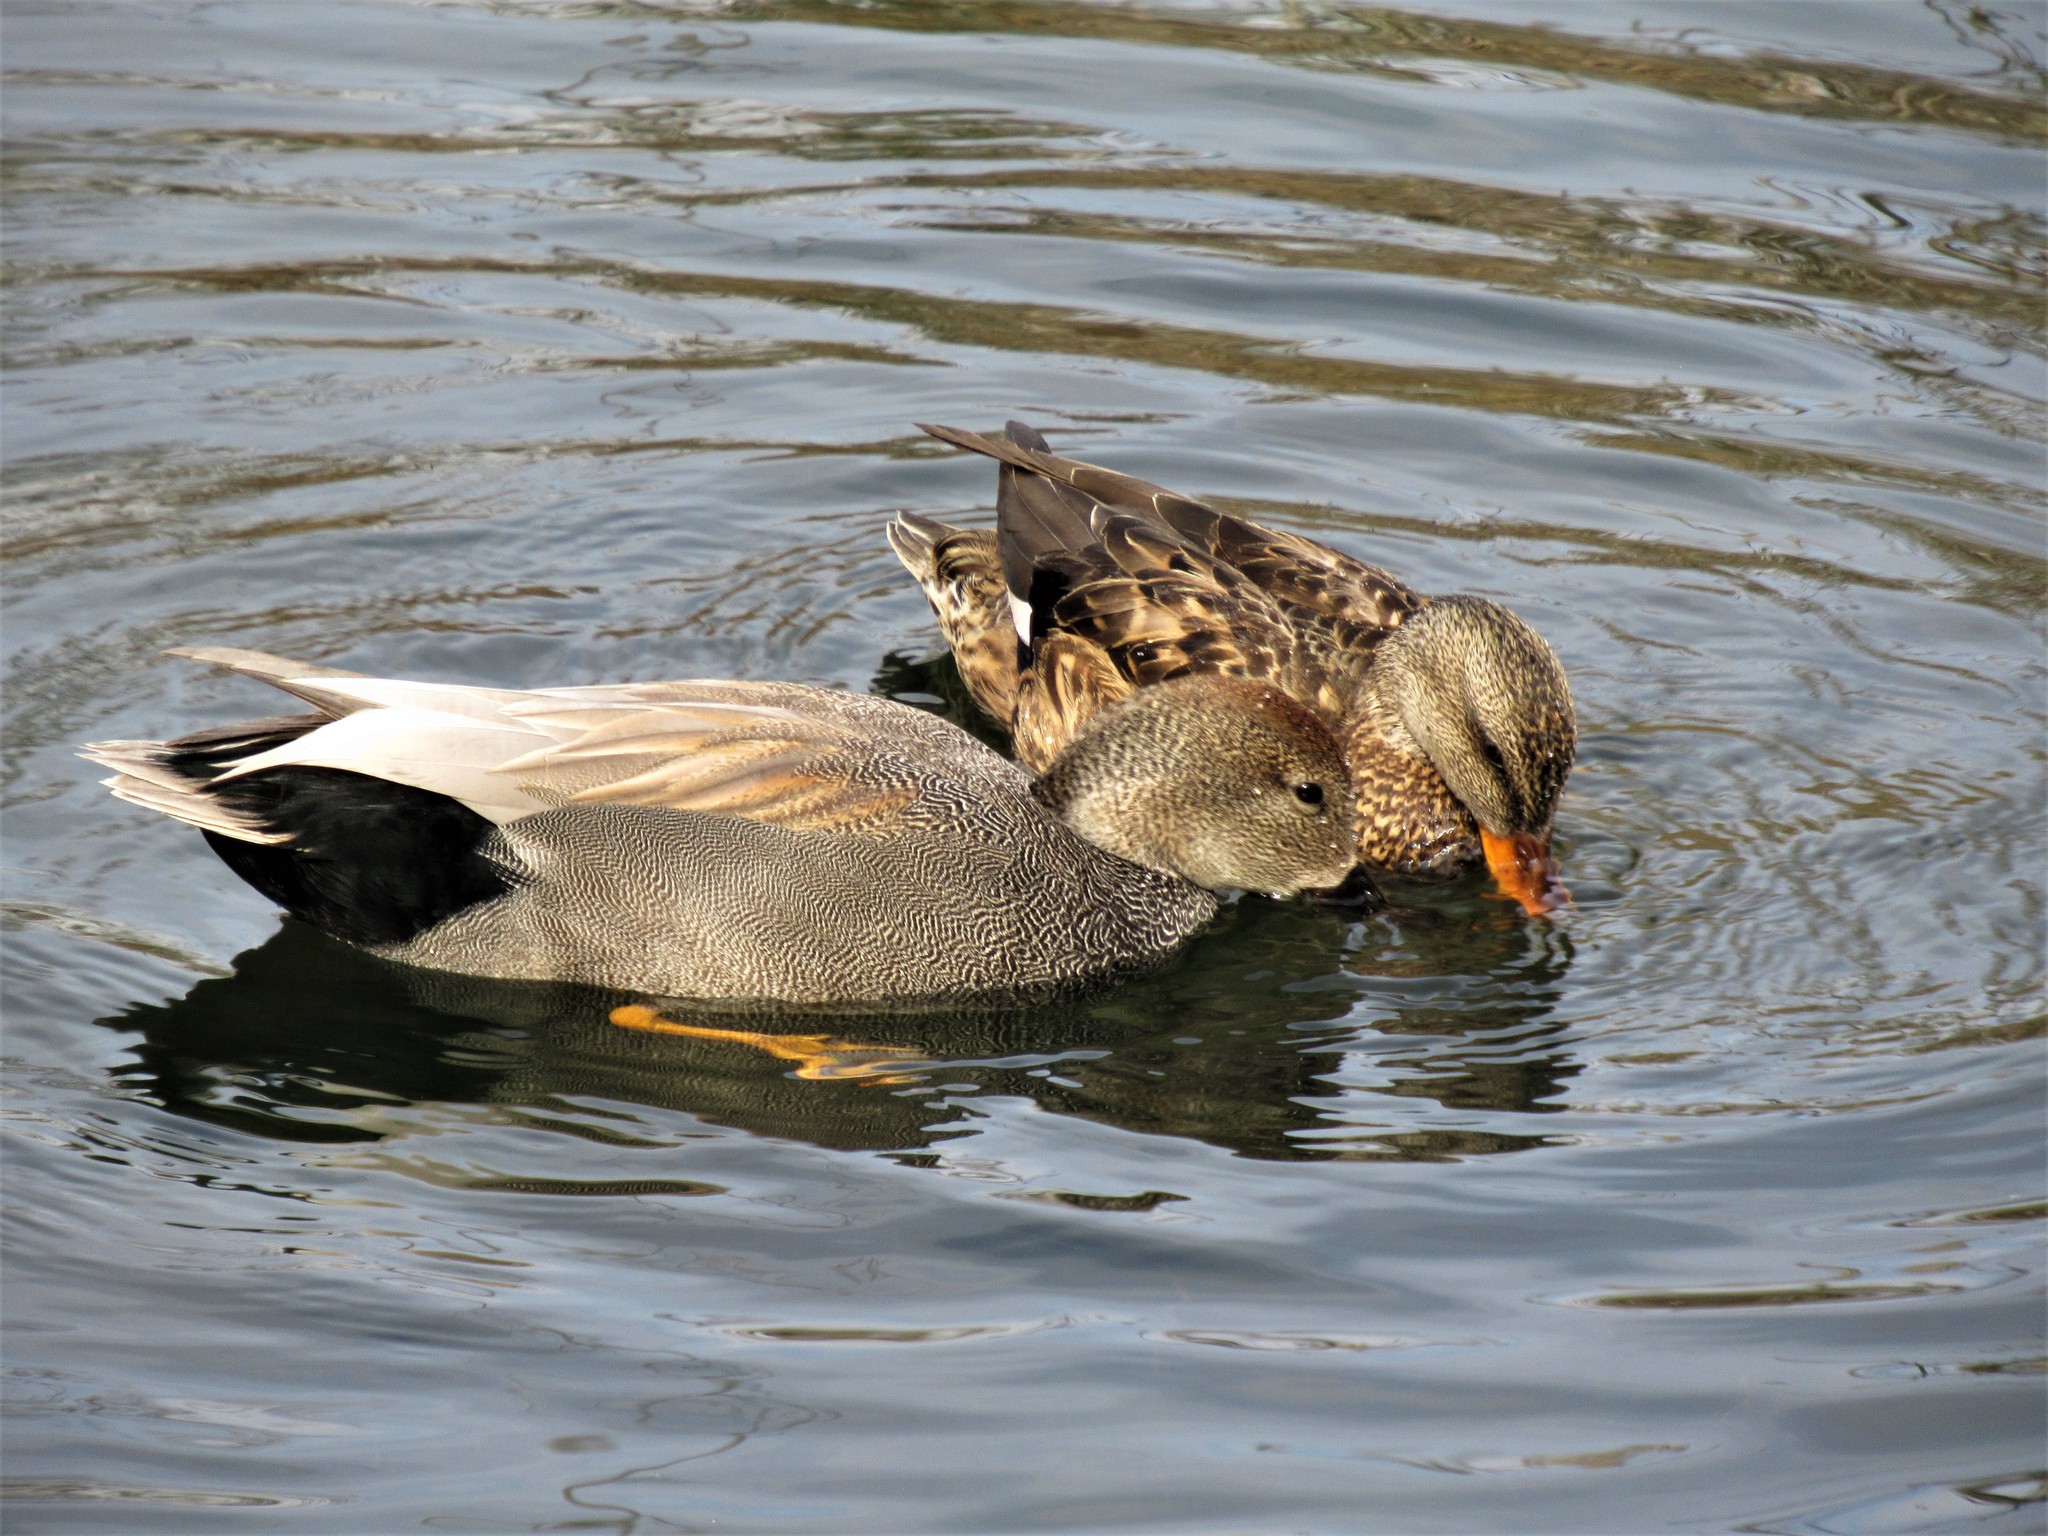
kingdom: Animalia
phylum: Chordata
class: Aves
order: Anseriformes
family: Anatidae
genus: Mareca
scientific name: Mareca strepera
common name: Gadwall
